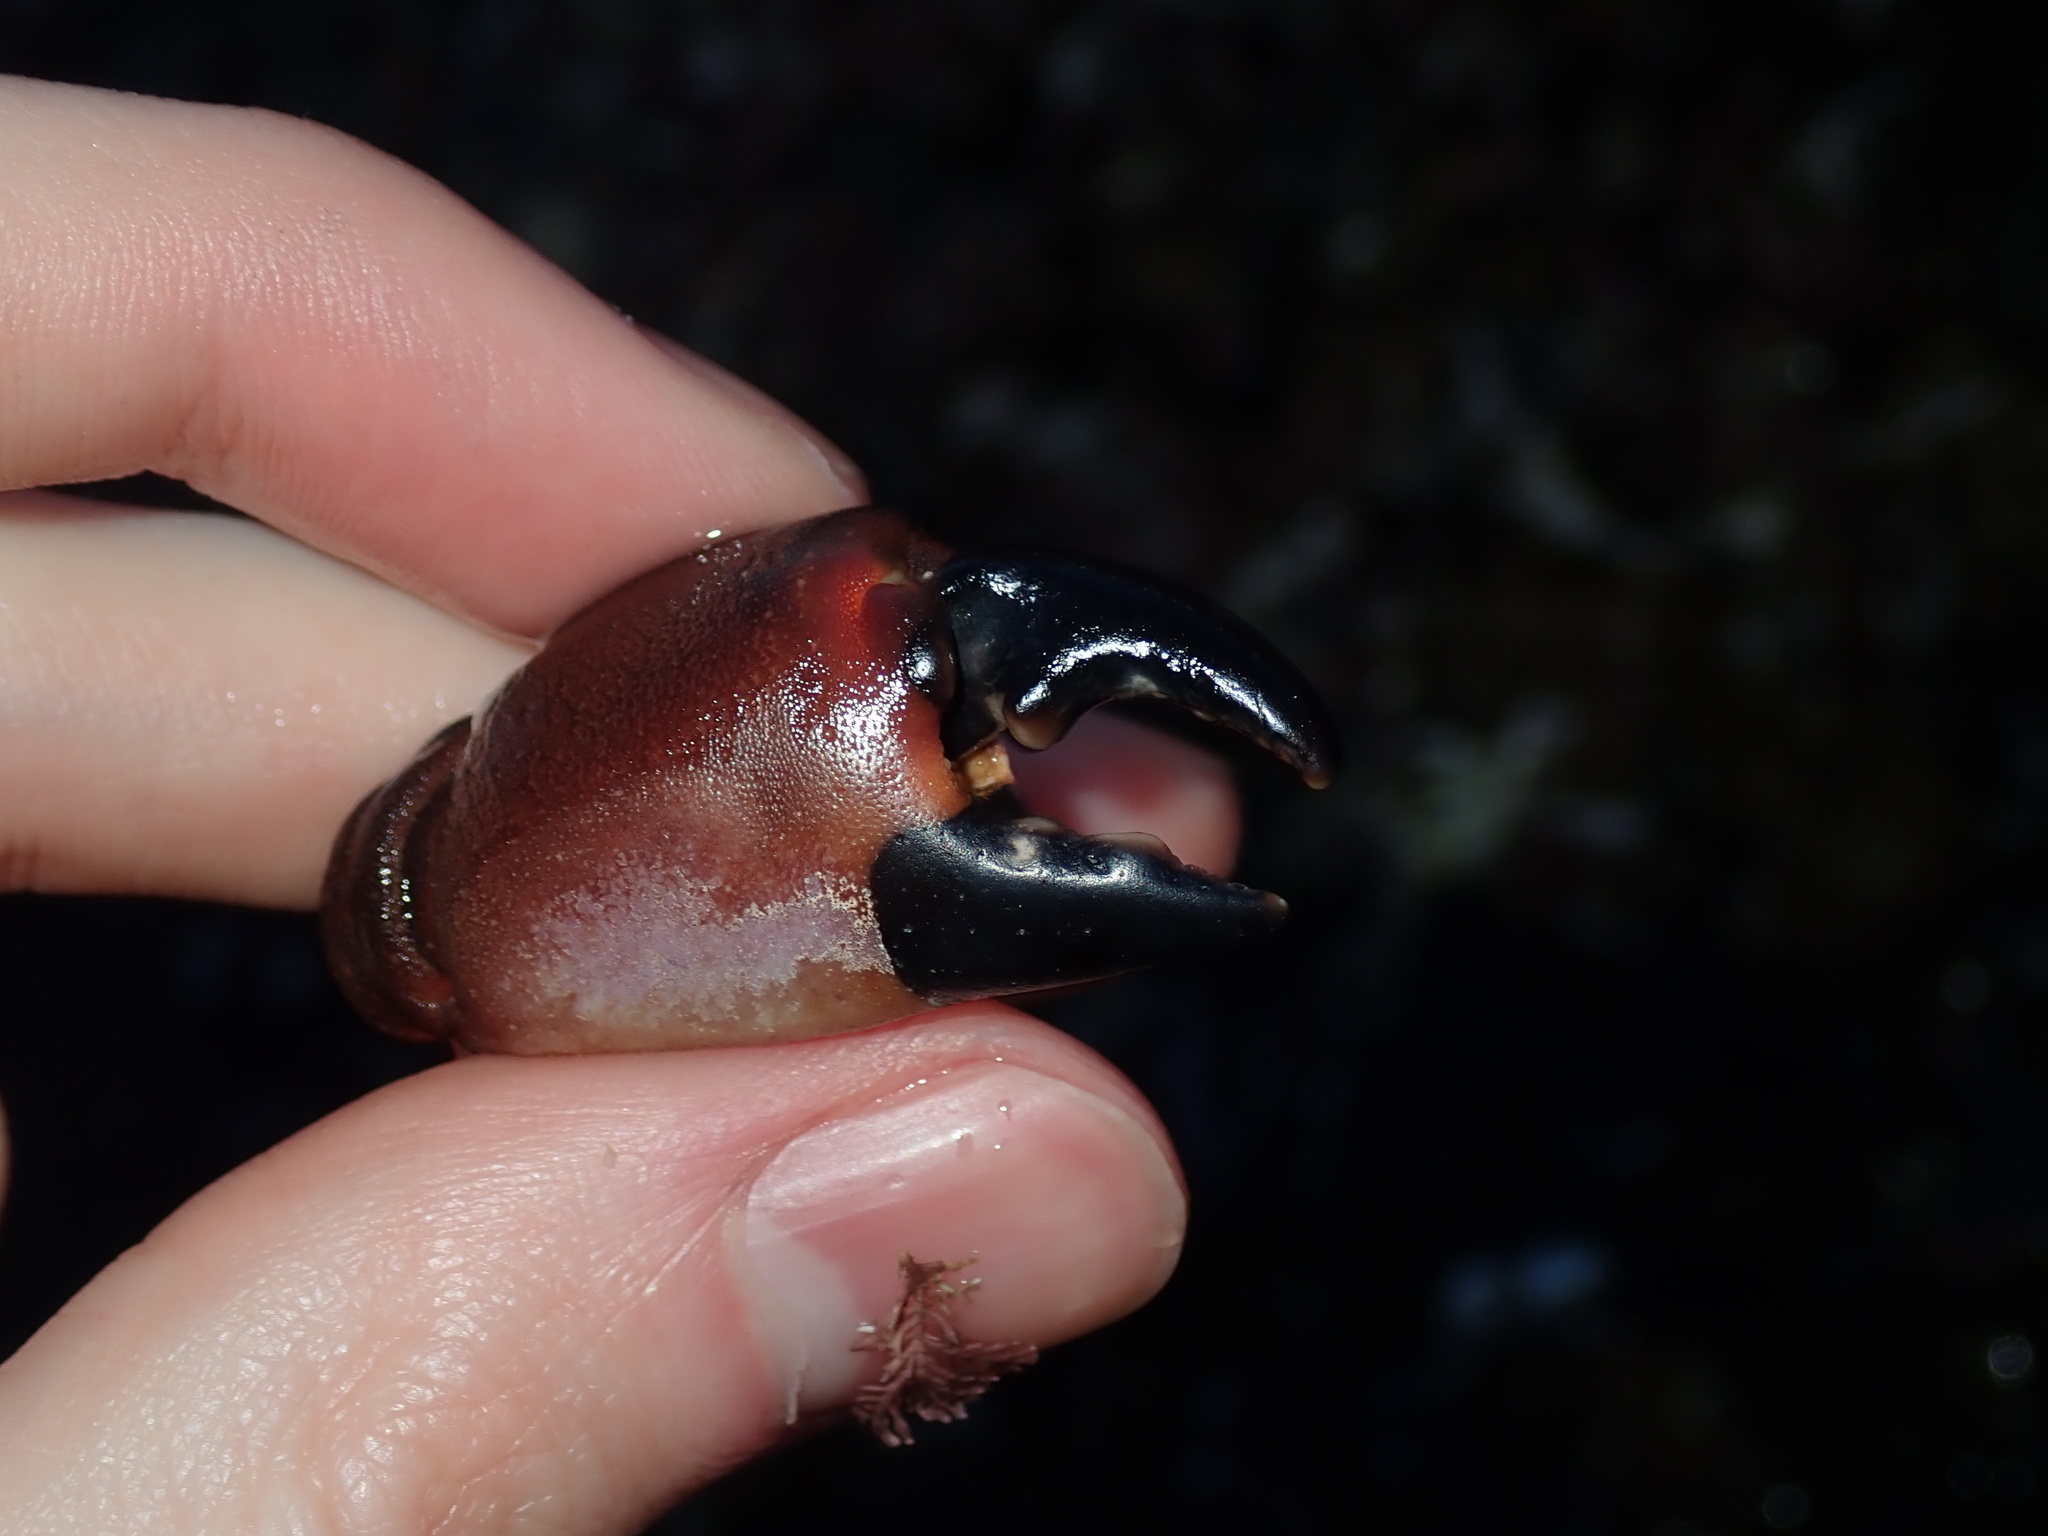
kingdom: Animalia
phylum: Arthropoda
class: Malacostraca
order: Decapoda
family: Oziidae
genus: Ozius
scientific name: Ozius truncatus
